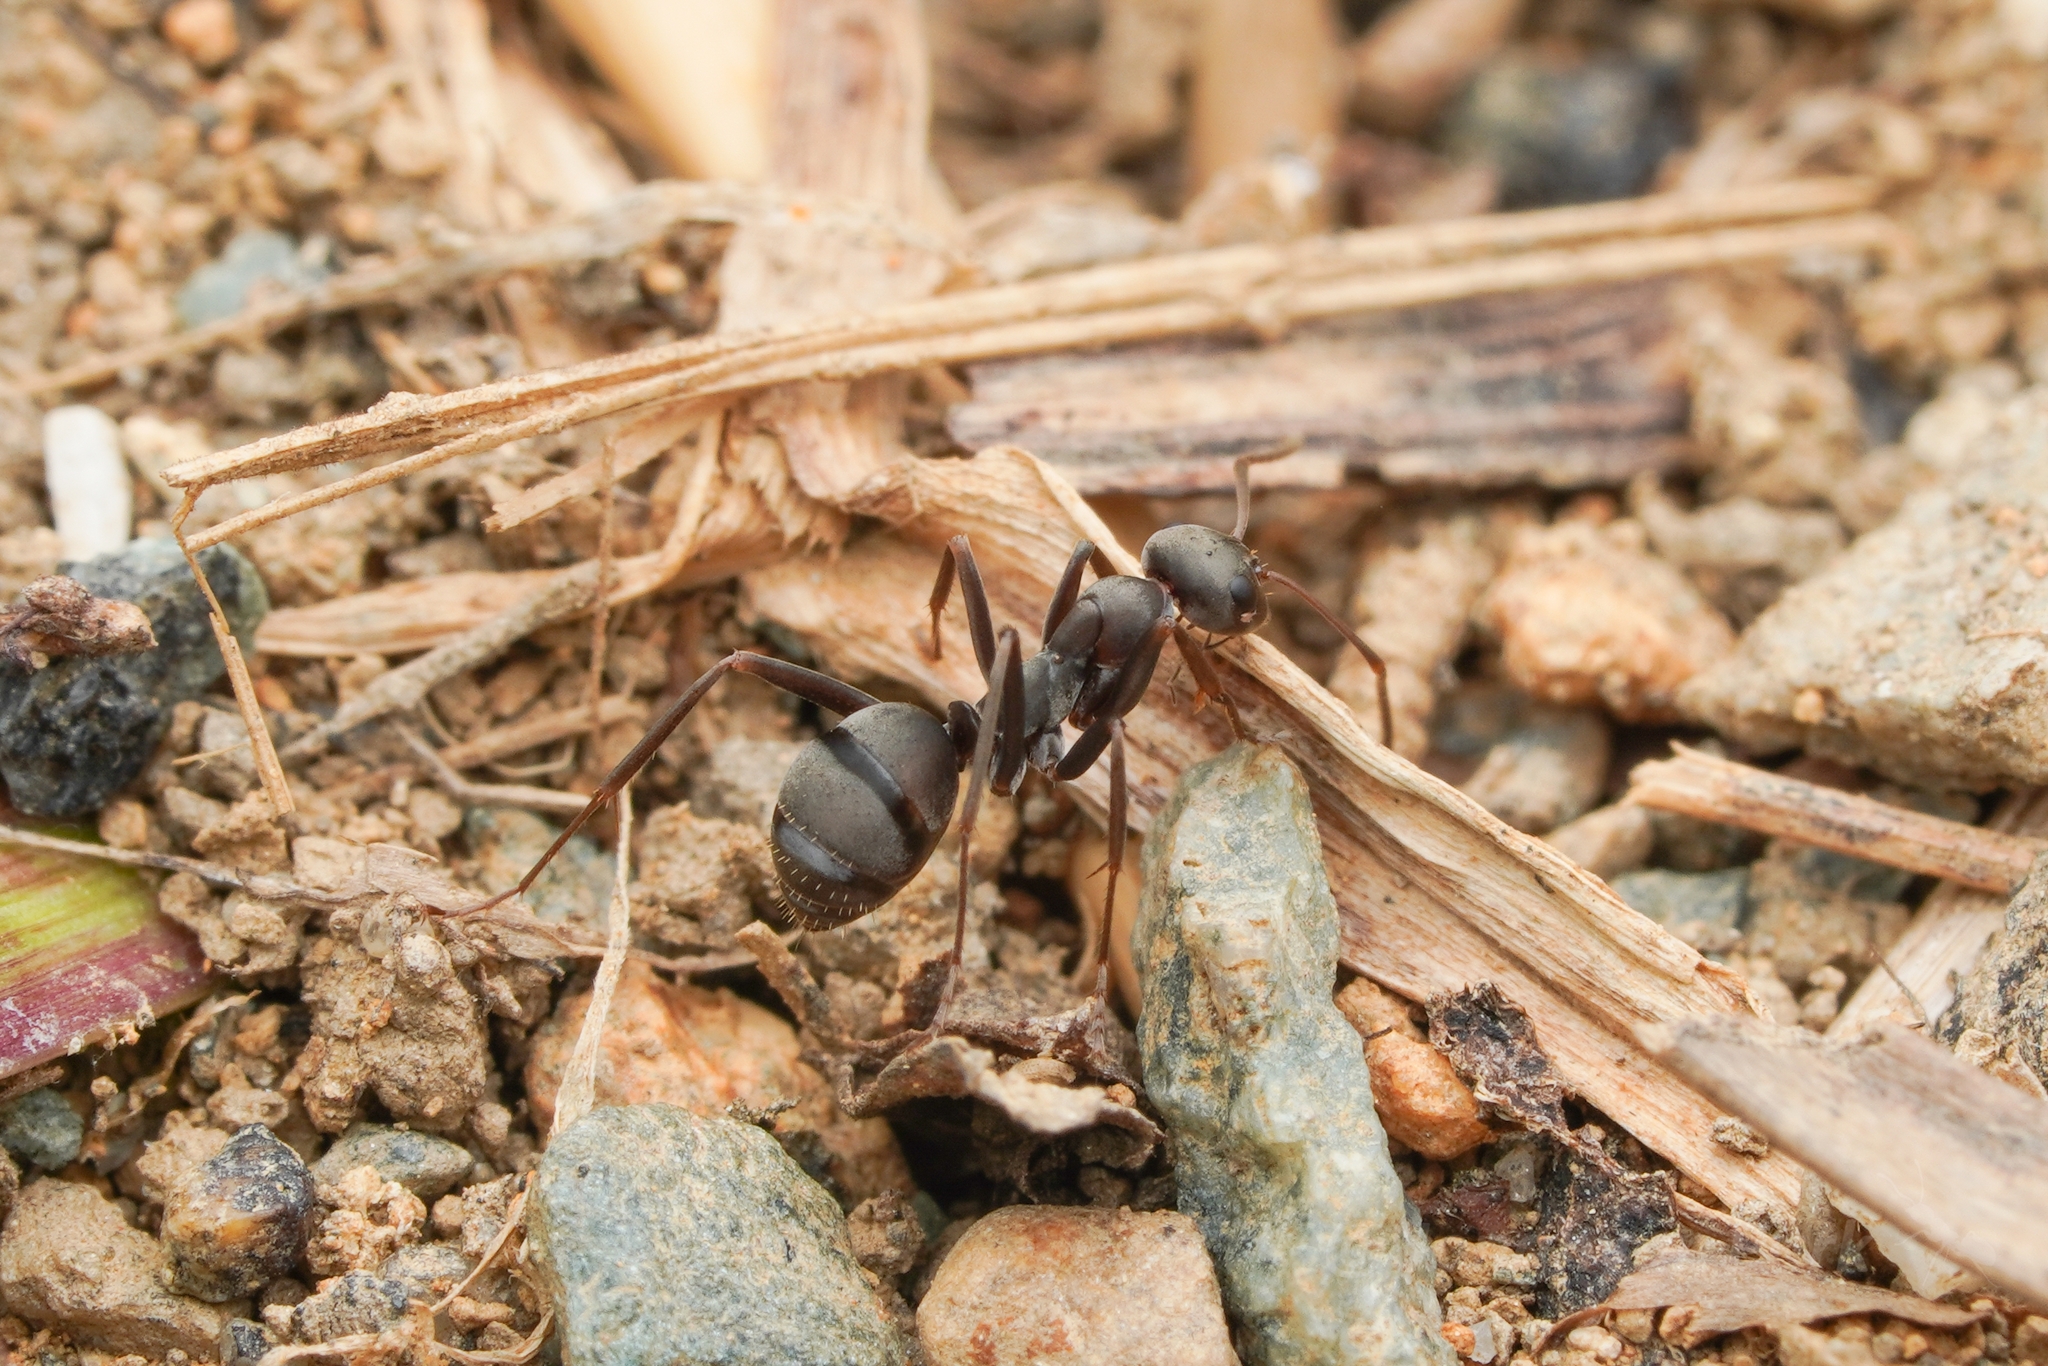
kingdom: Animalia
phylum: Arthropoda
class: Insecta
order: Hymenoptera
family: Formicidae
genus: Formica
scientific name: Formica japonica
